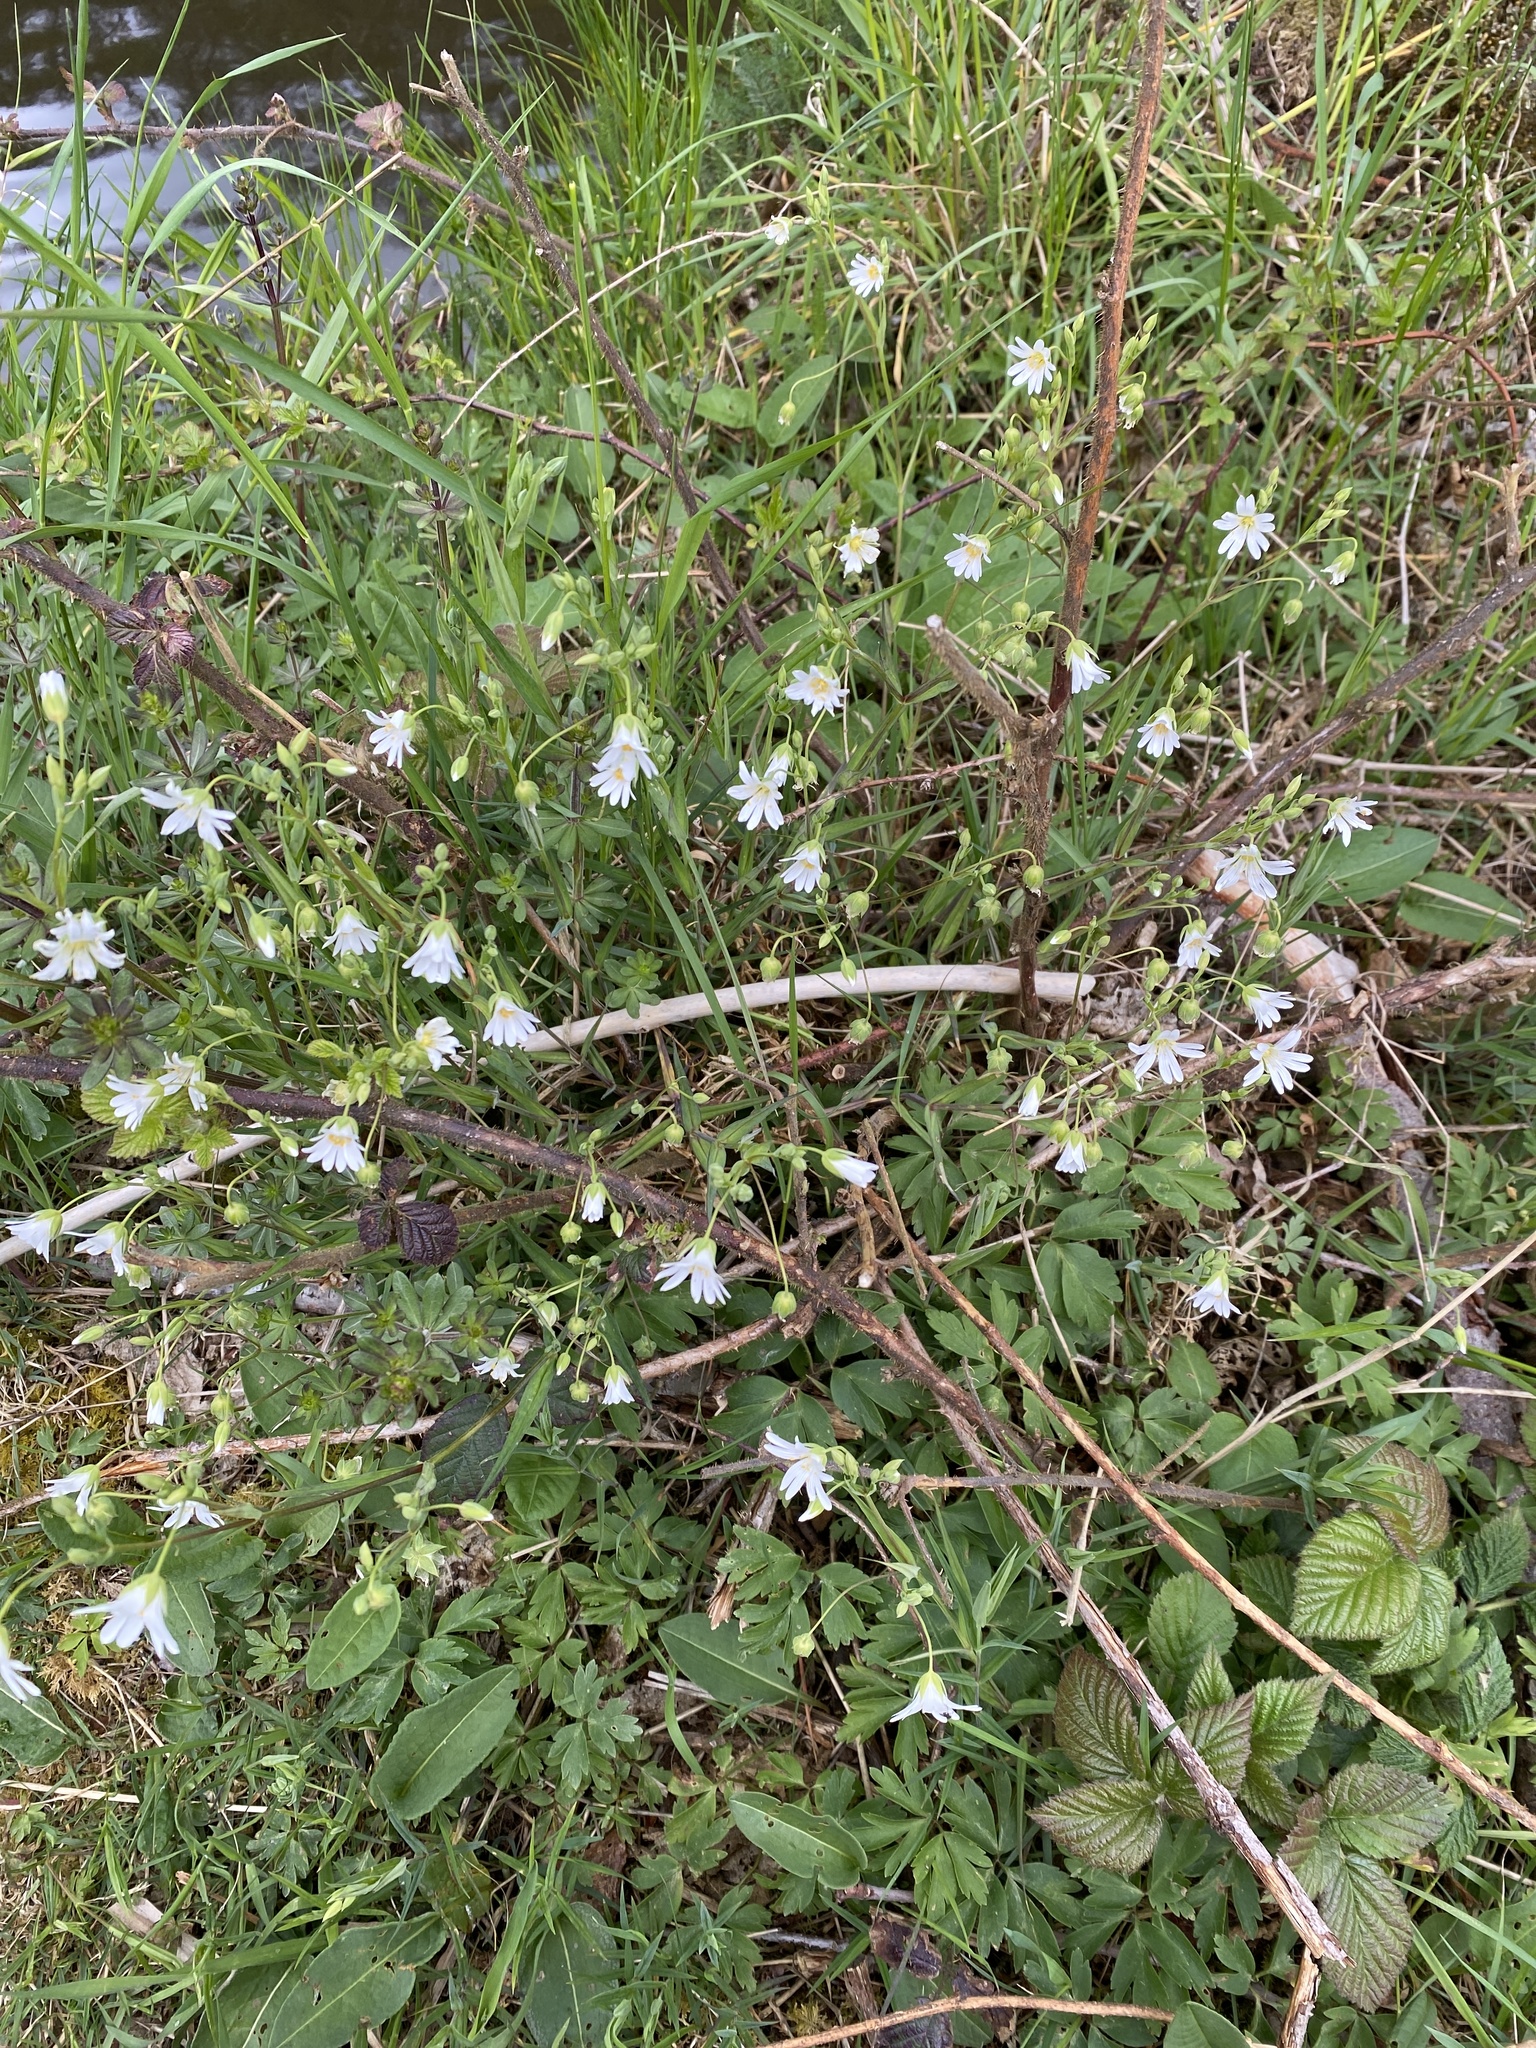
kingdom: Plantae
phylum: Tracheophyta
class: Magnoliopsida
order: Caryophyllales
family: Caryophyllaceae
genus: Rabelera
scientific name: Rabelera holostea
